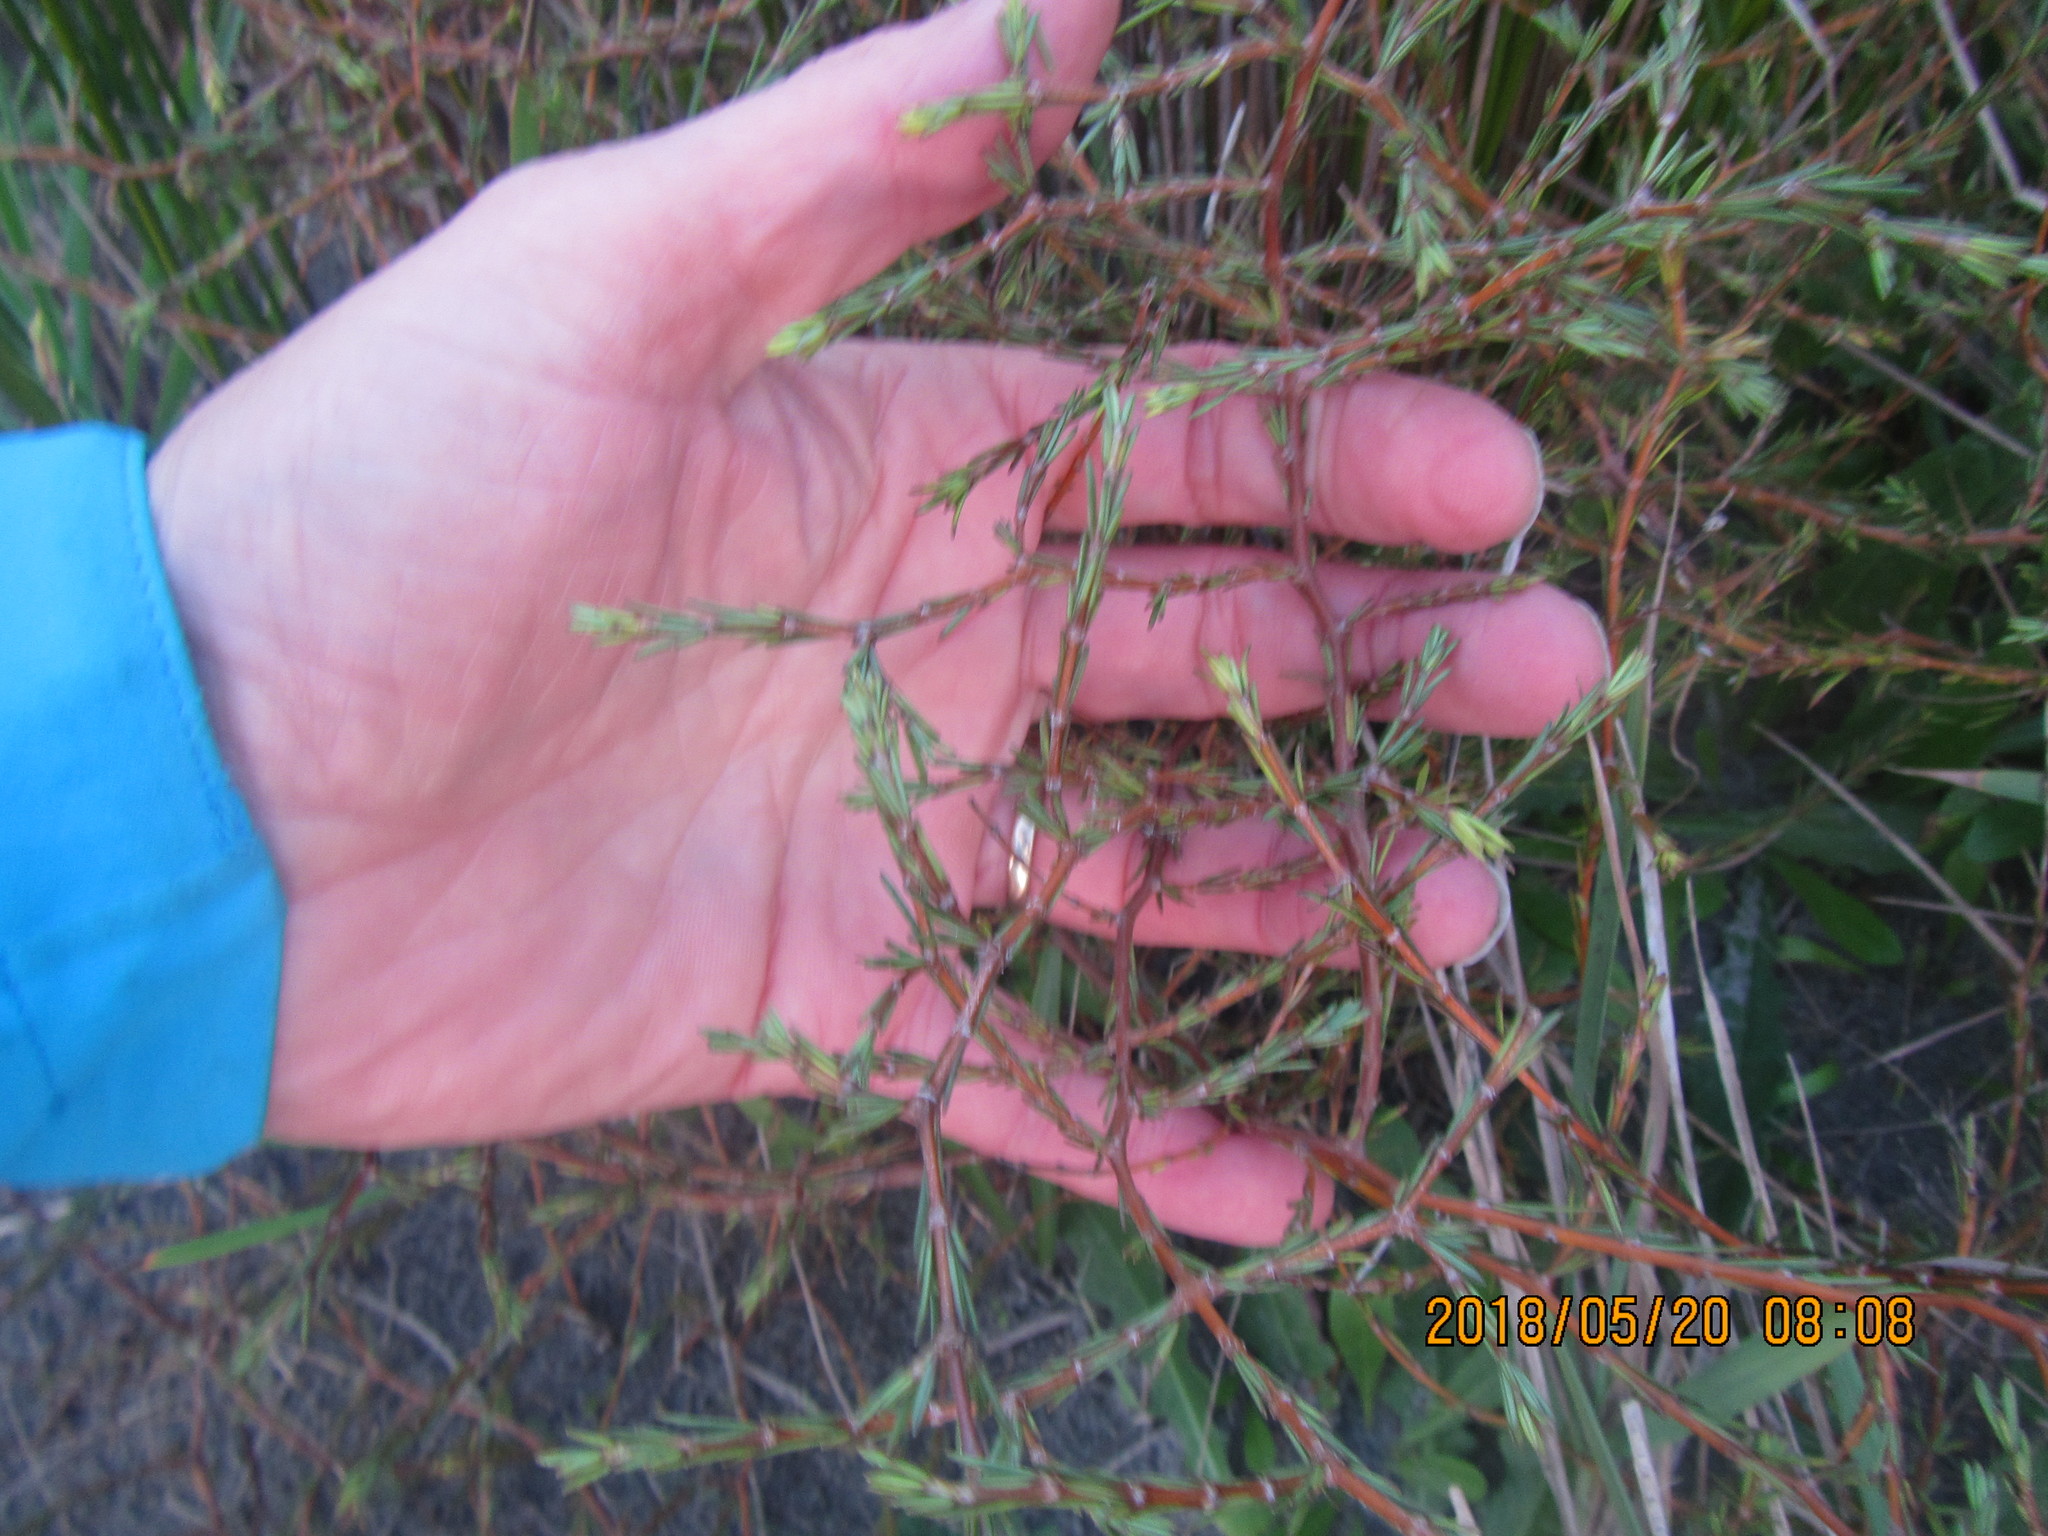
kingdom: Plantae
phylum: Tracheophyta
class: Magnoliopsida
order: Gentianales
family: Rubiaceae
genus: Coprosma
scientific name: Coprosma acerosa
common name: Sand coprosma
